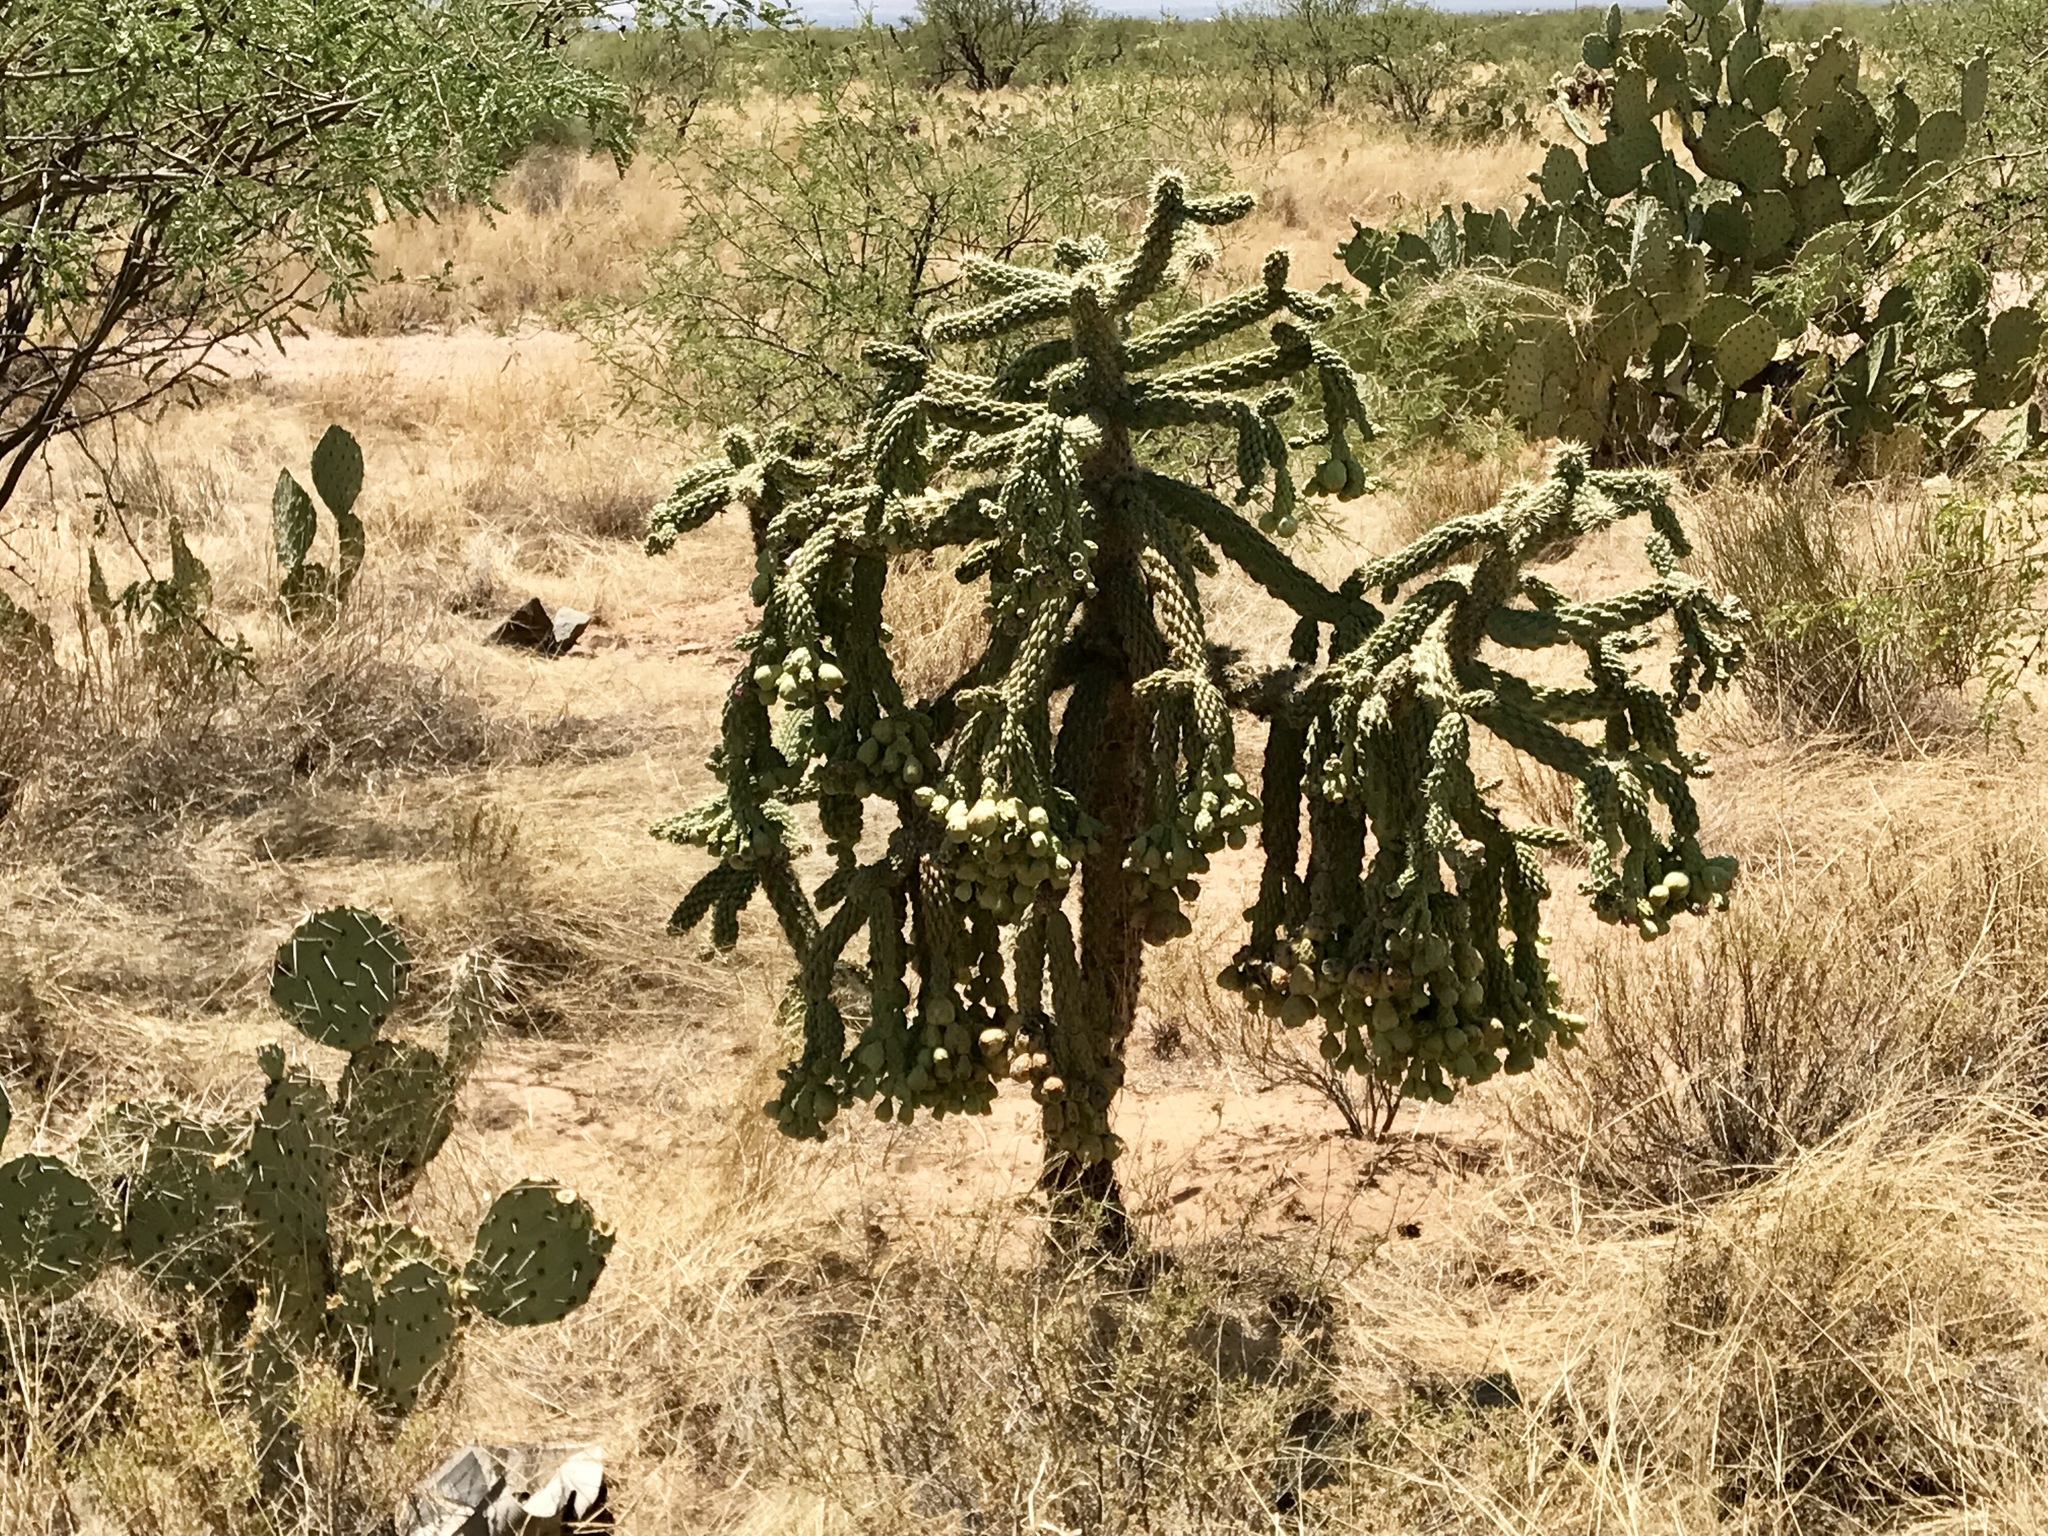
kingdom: Plantae
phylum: Tracheophyta
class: Magnoliopsida
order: Caryophyllales
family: Cactaceae
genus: Cylindropuntia
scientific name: Cylindropuntia fulgida
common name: Jumping cholla
